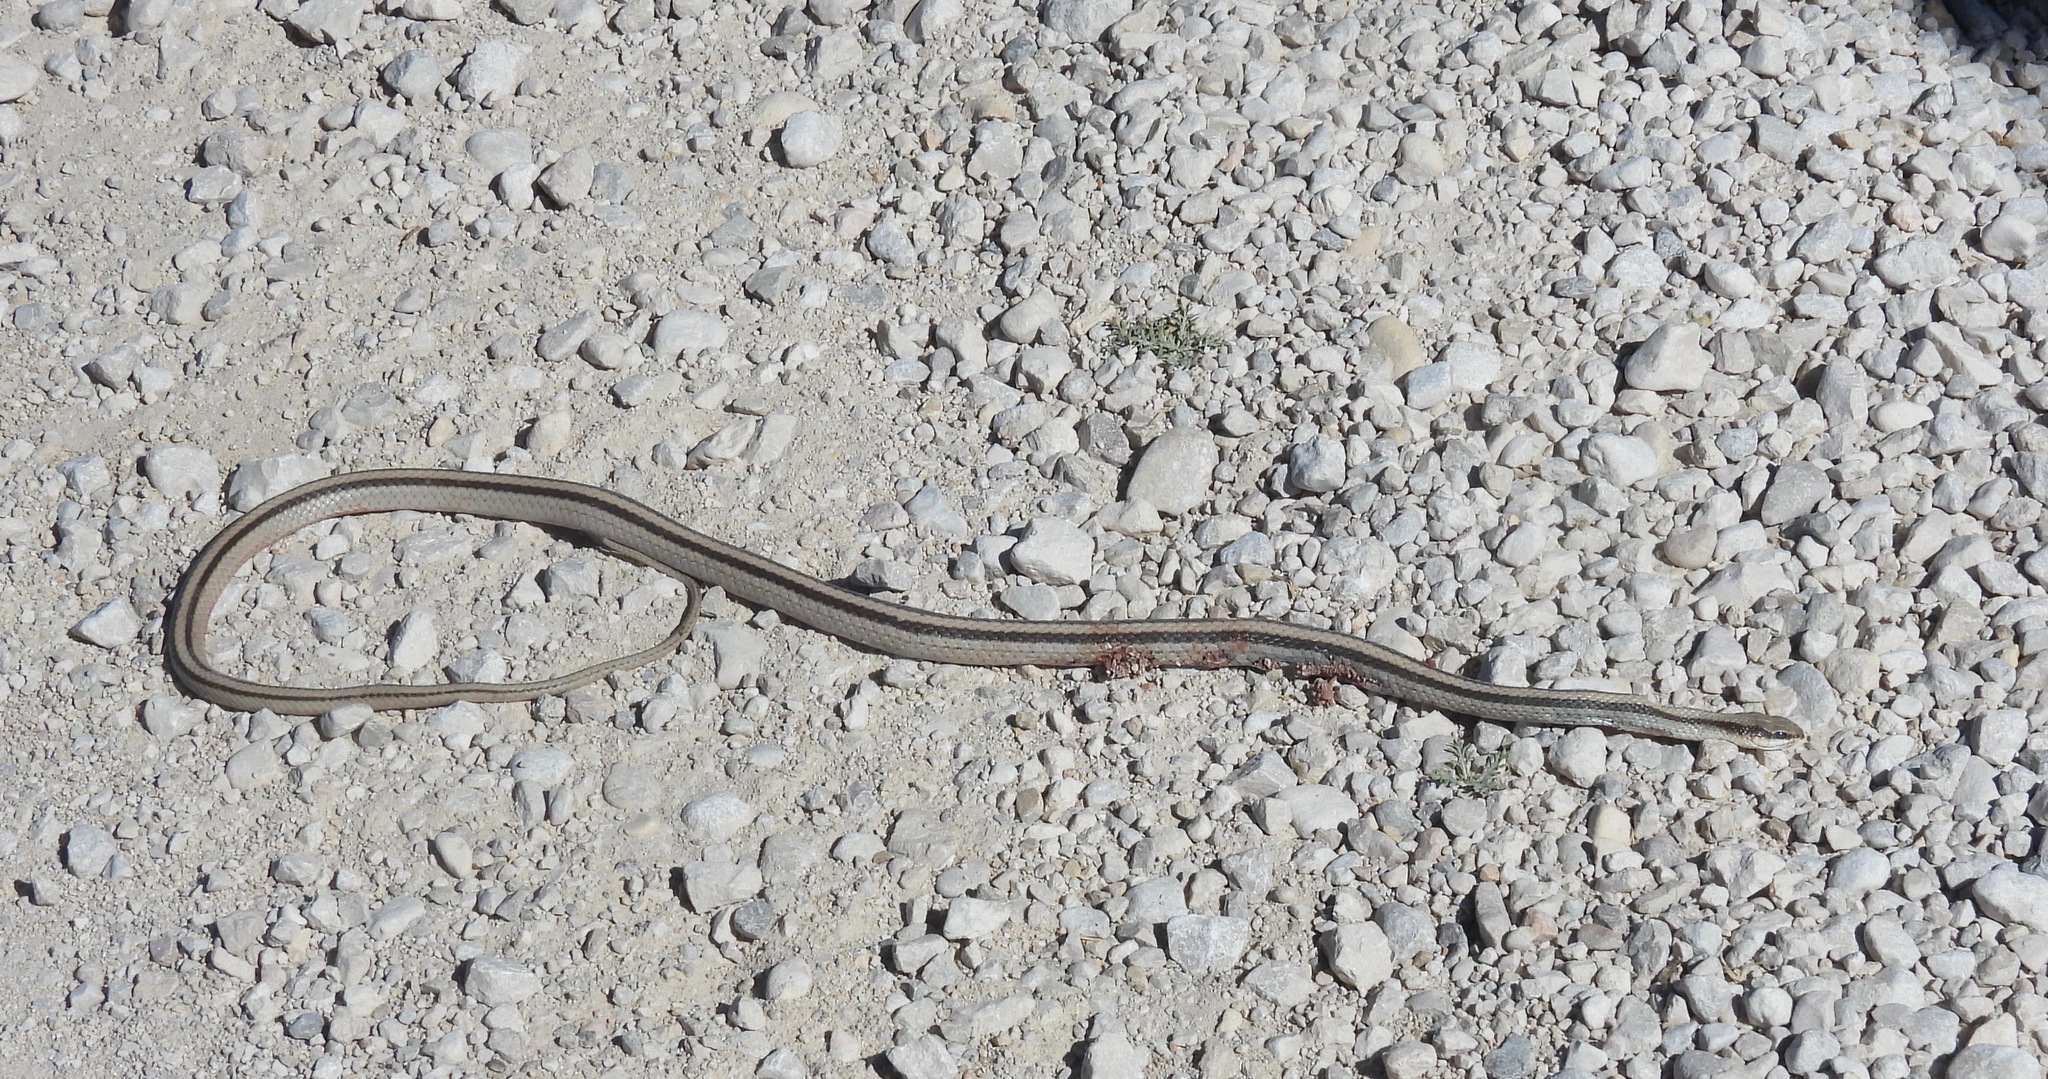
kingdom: Animalia
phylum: Chordata
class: Squamata
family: Colubridae
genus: Salvadora
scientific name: Salvadora grahamiae
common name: Mountain patchnose snake
